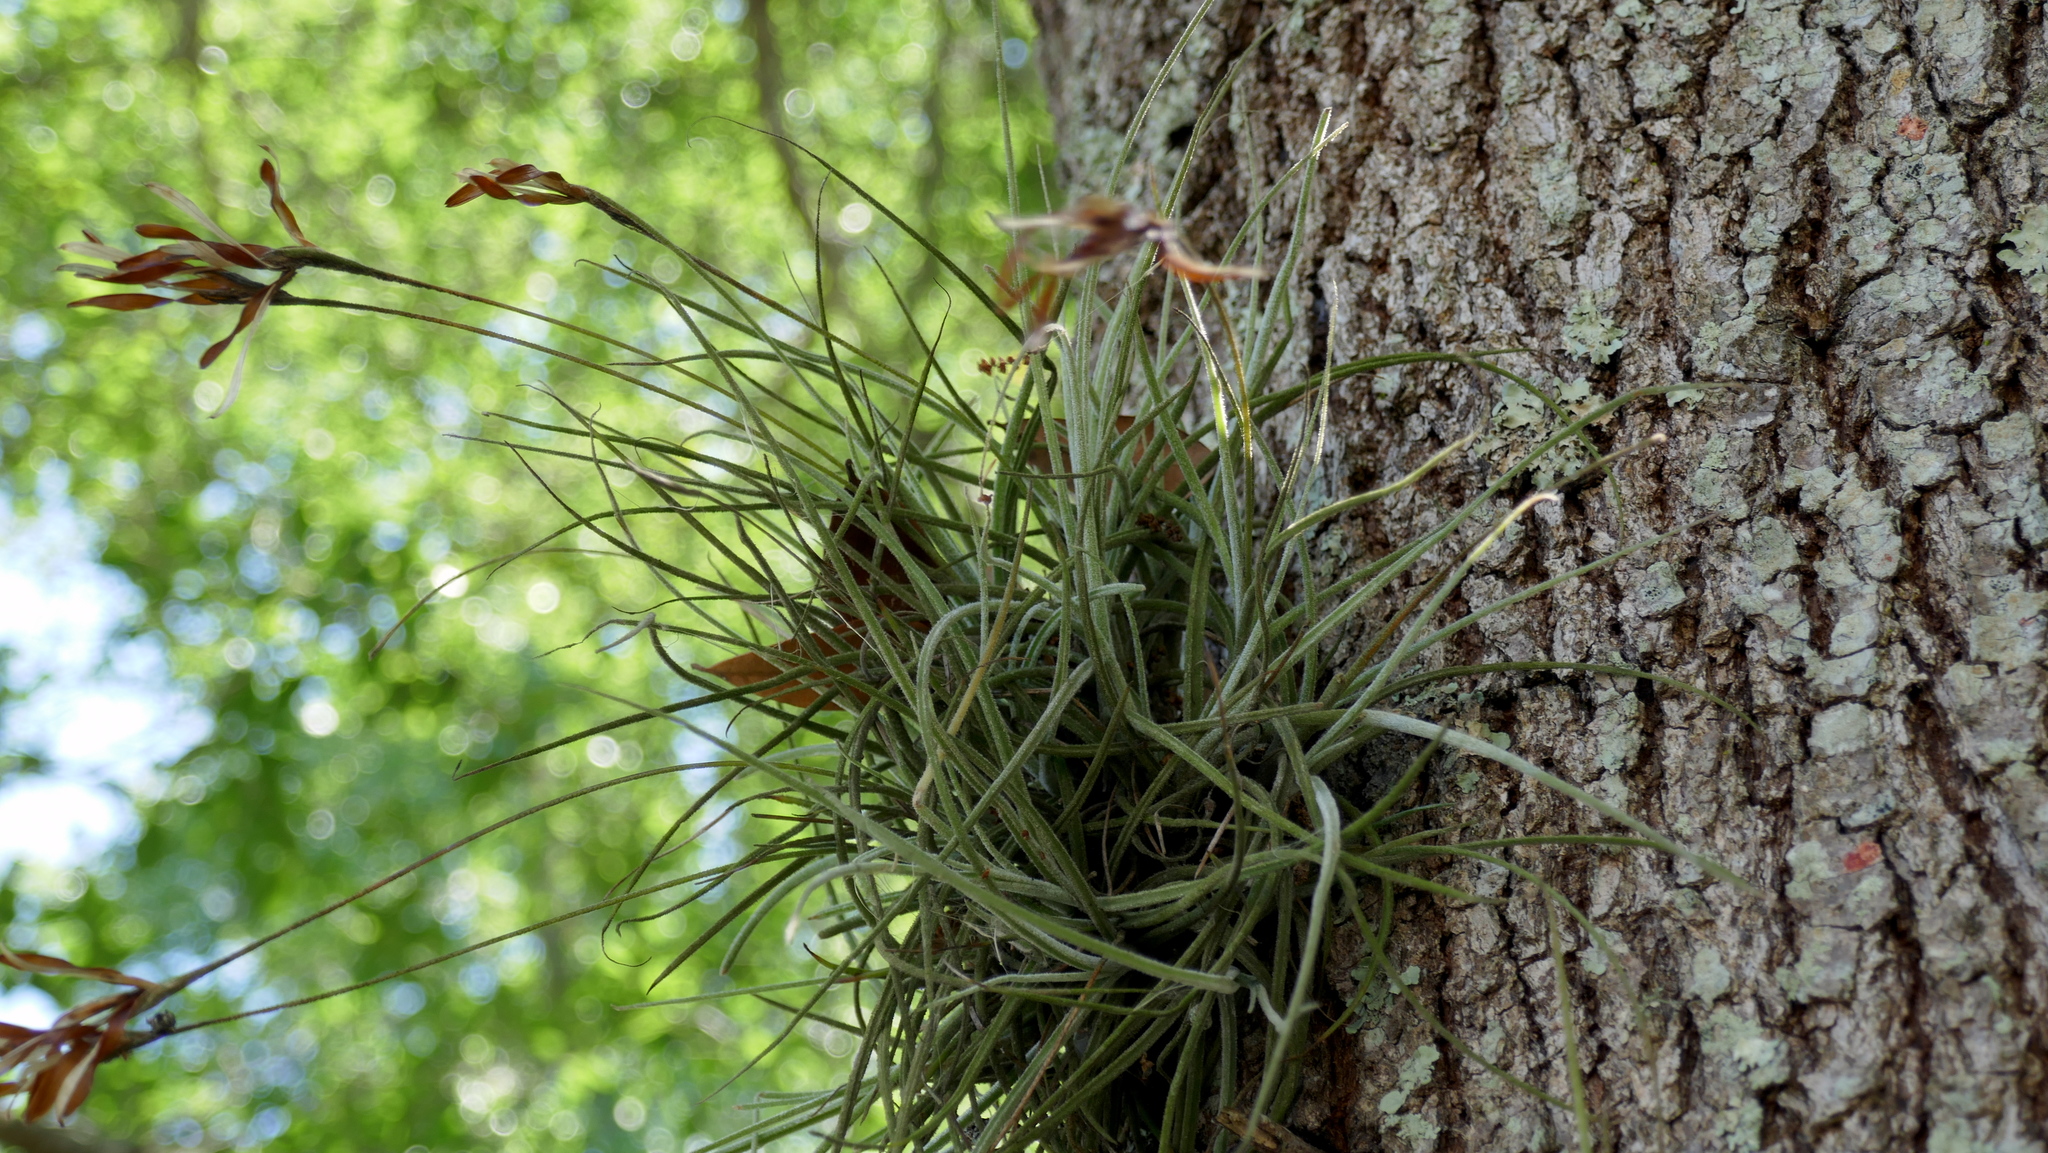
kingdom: Plantae
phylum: Tracheophyta
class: Liliopsida
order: Poales
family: Bromeliaceae
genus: Tillandsia
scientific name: Tillandsia recurvata
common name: Small ballmoss
